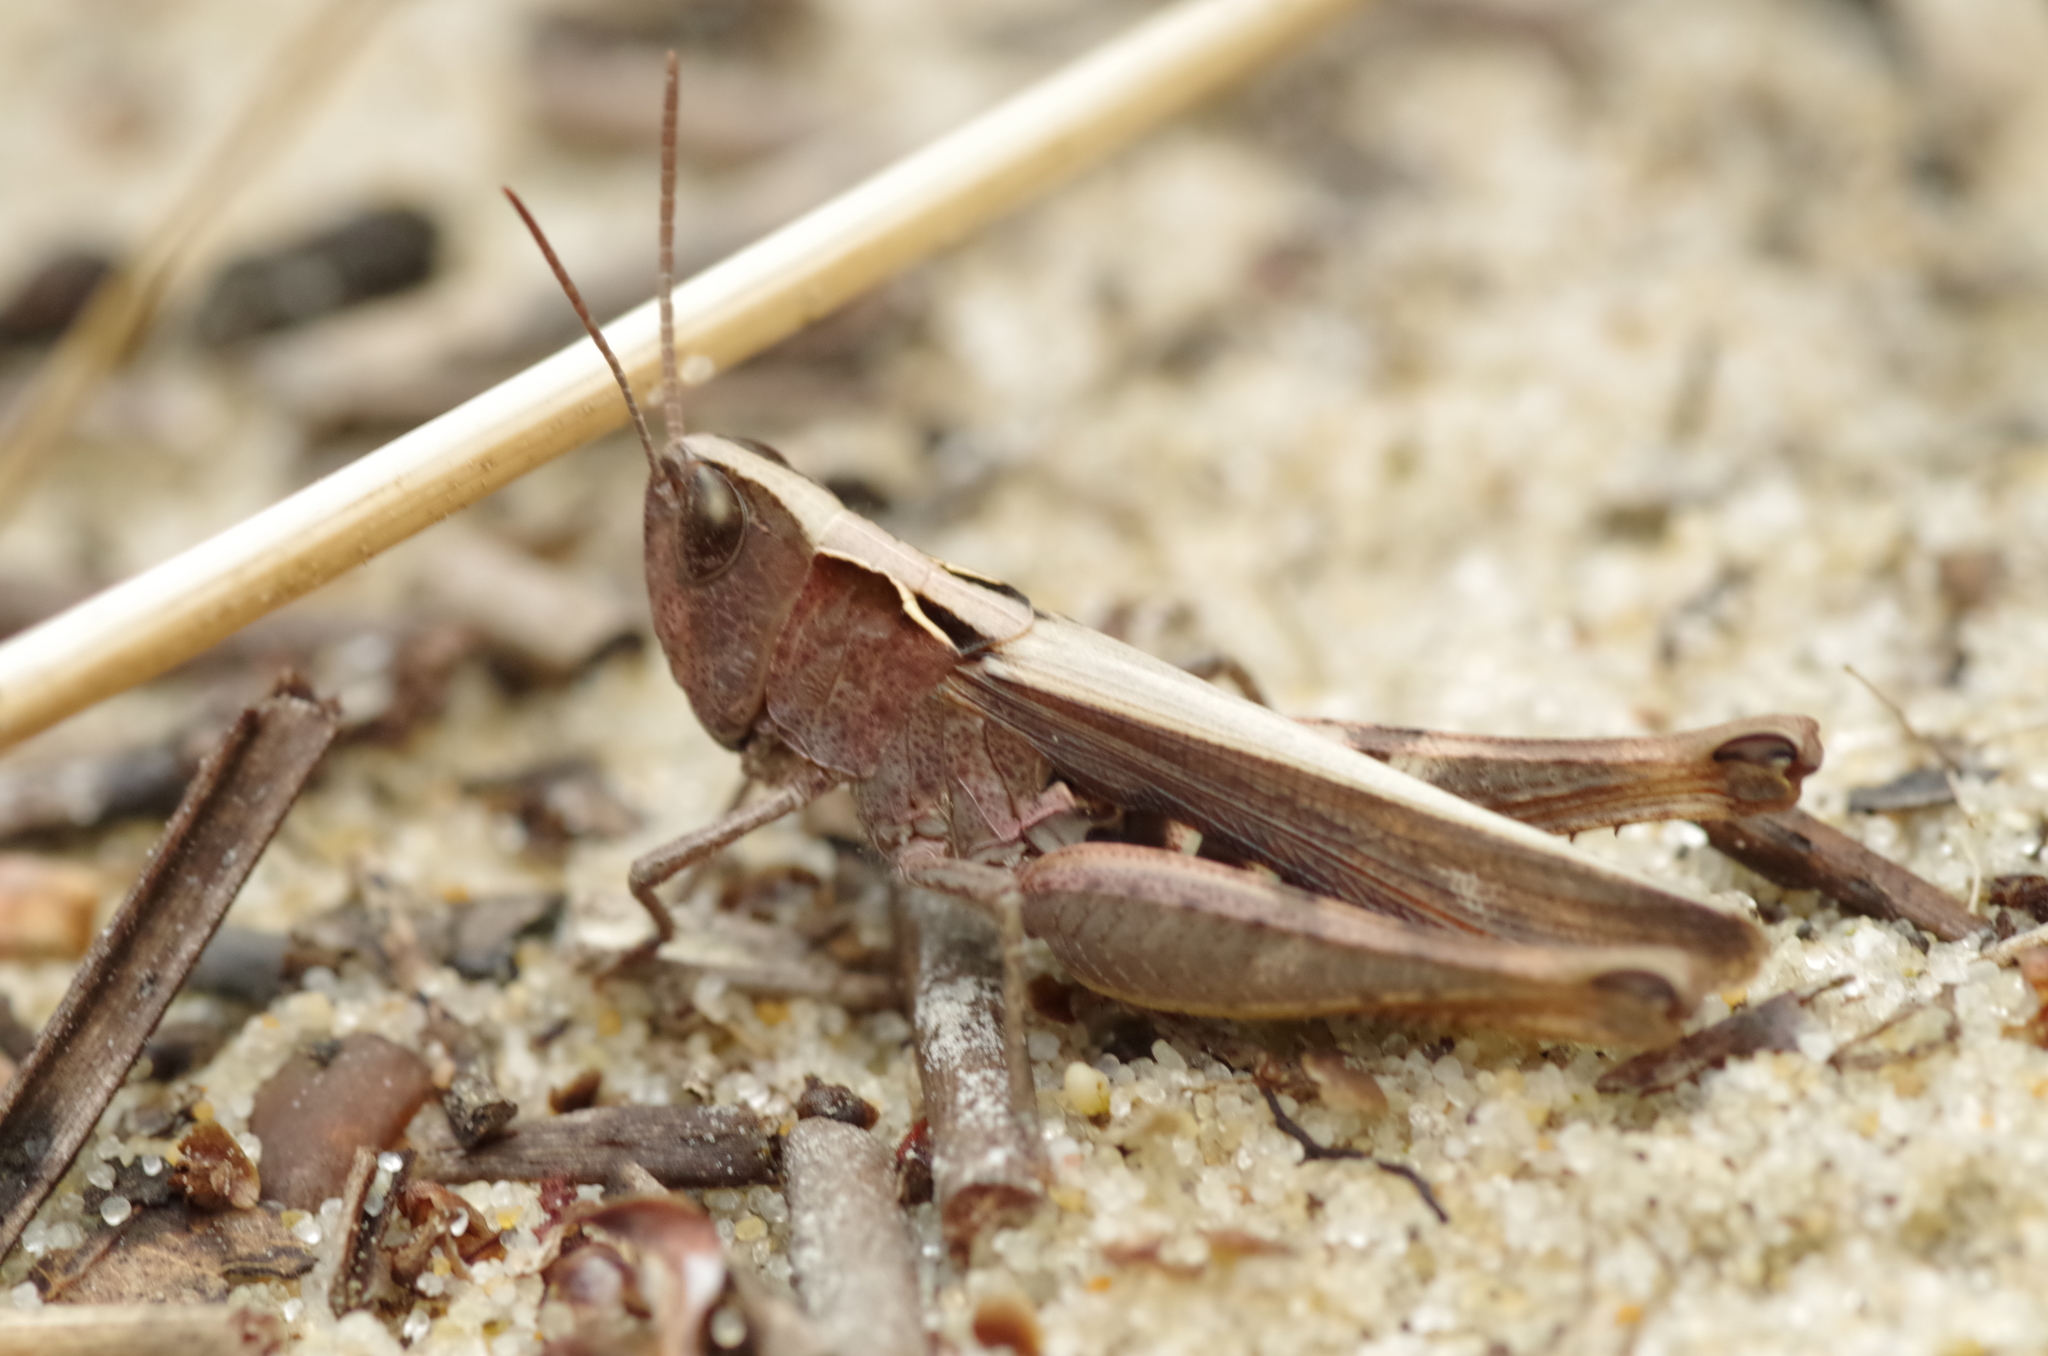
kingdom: Animalia
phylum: Arthropoda
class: Insecta
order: Orthoptera
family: Acrididae
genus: Chorthippus
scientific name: Chorthippus vagans
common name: Heath grasshopper
